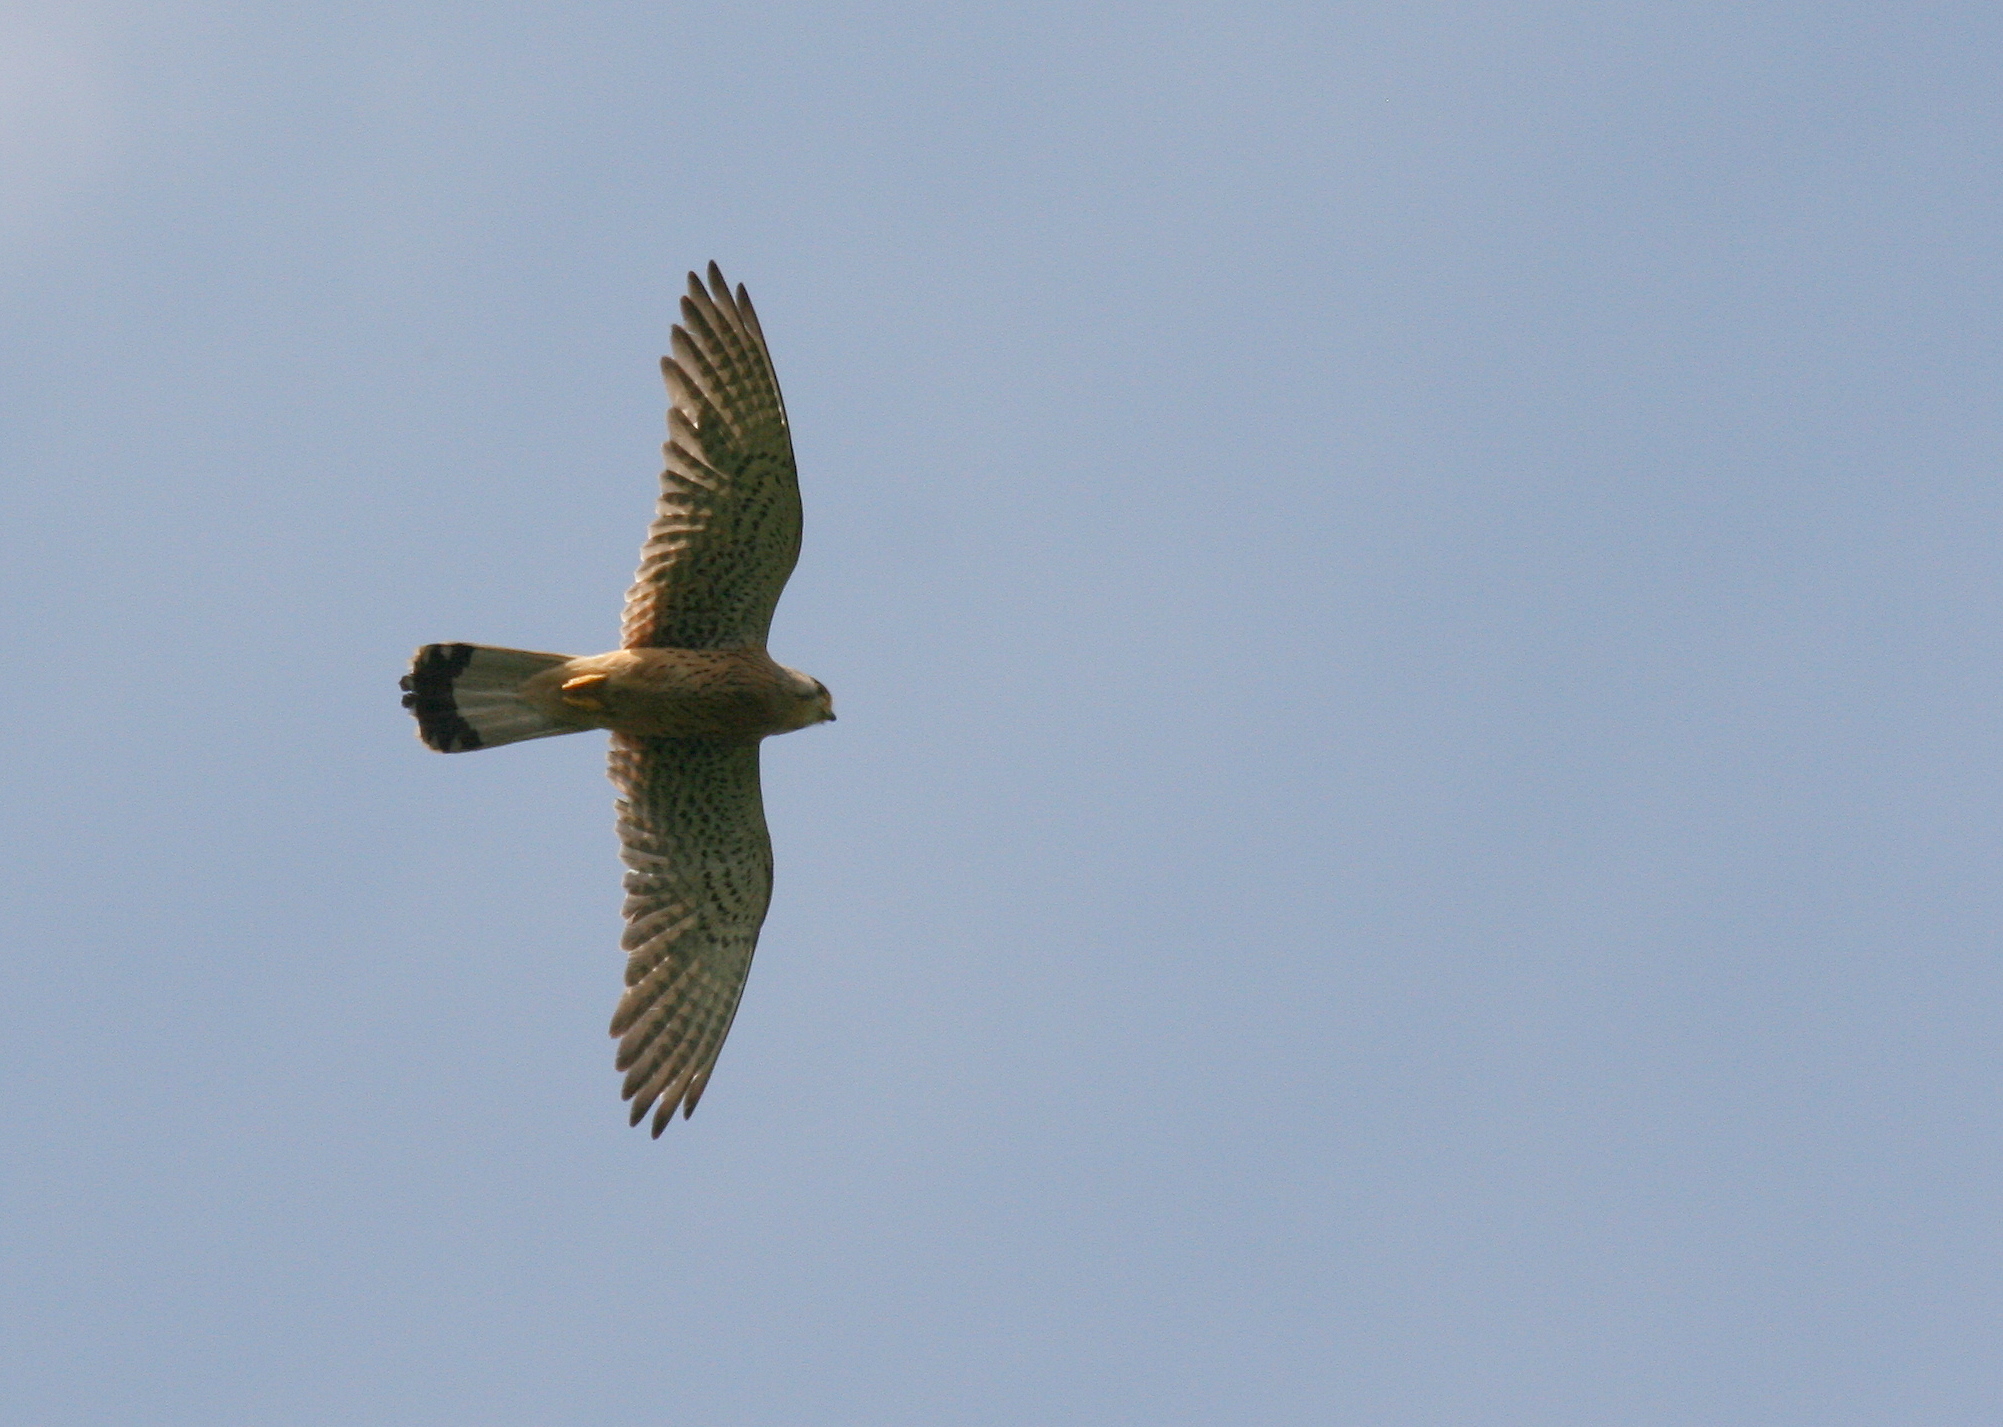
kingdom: Animalia
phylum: Chordata
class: Aves
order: Falconiformes
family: Falconidae
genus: Falco
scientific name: Falco tinnunculus
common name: Common kestrel
